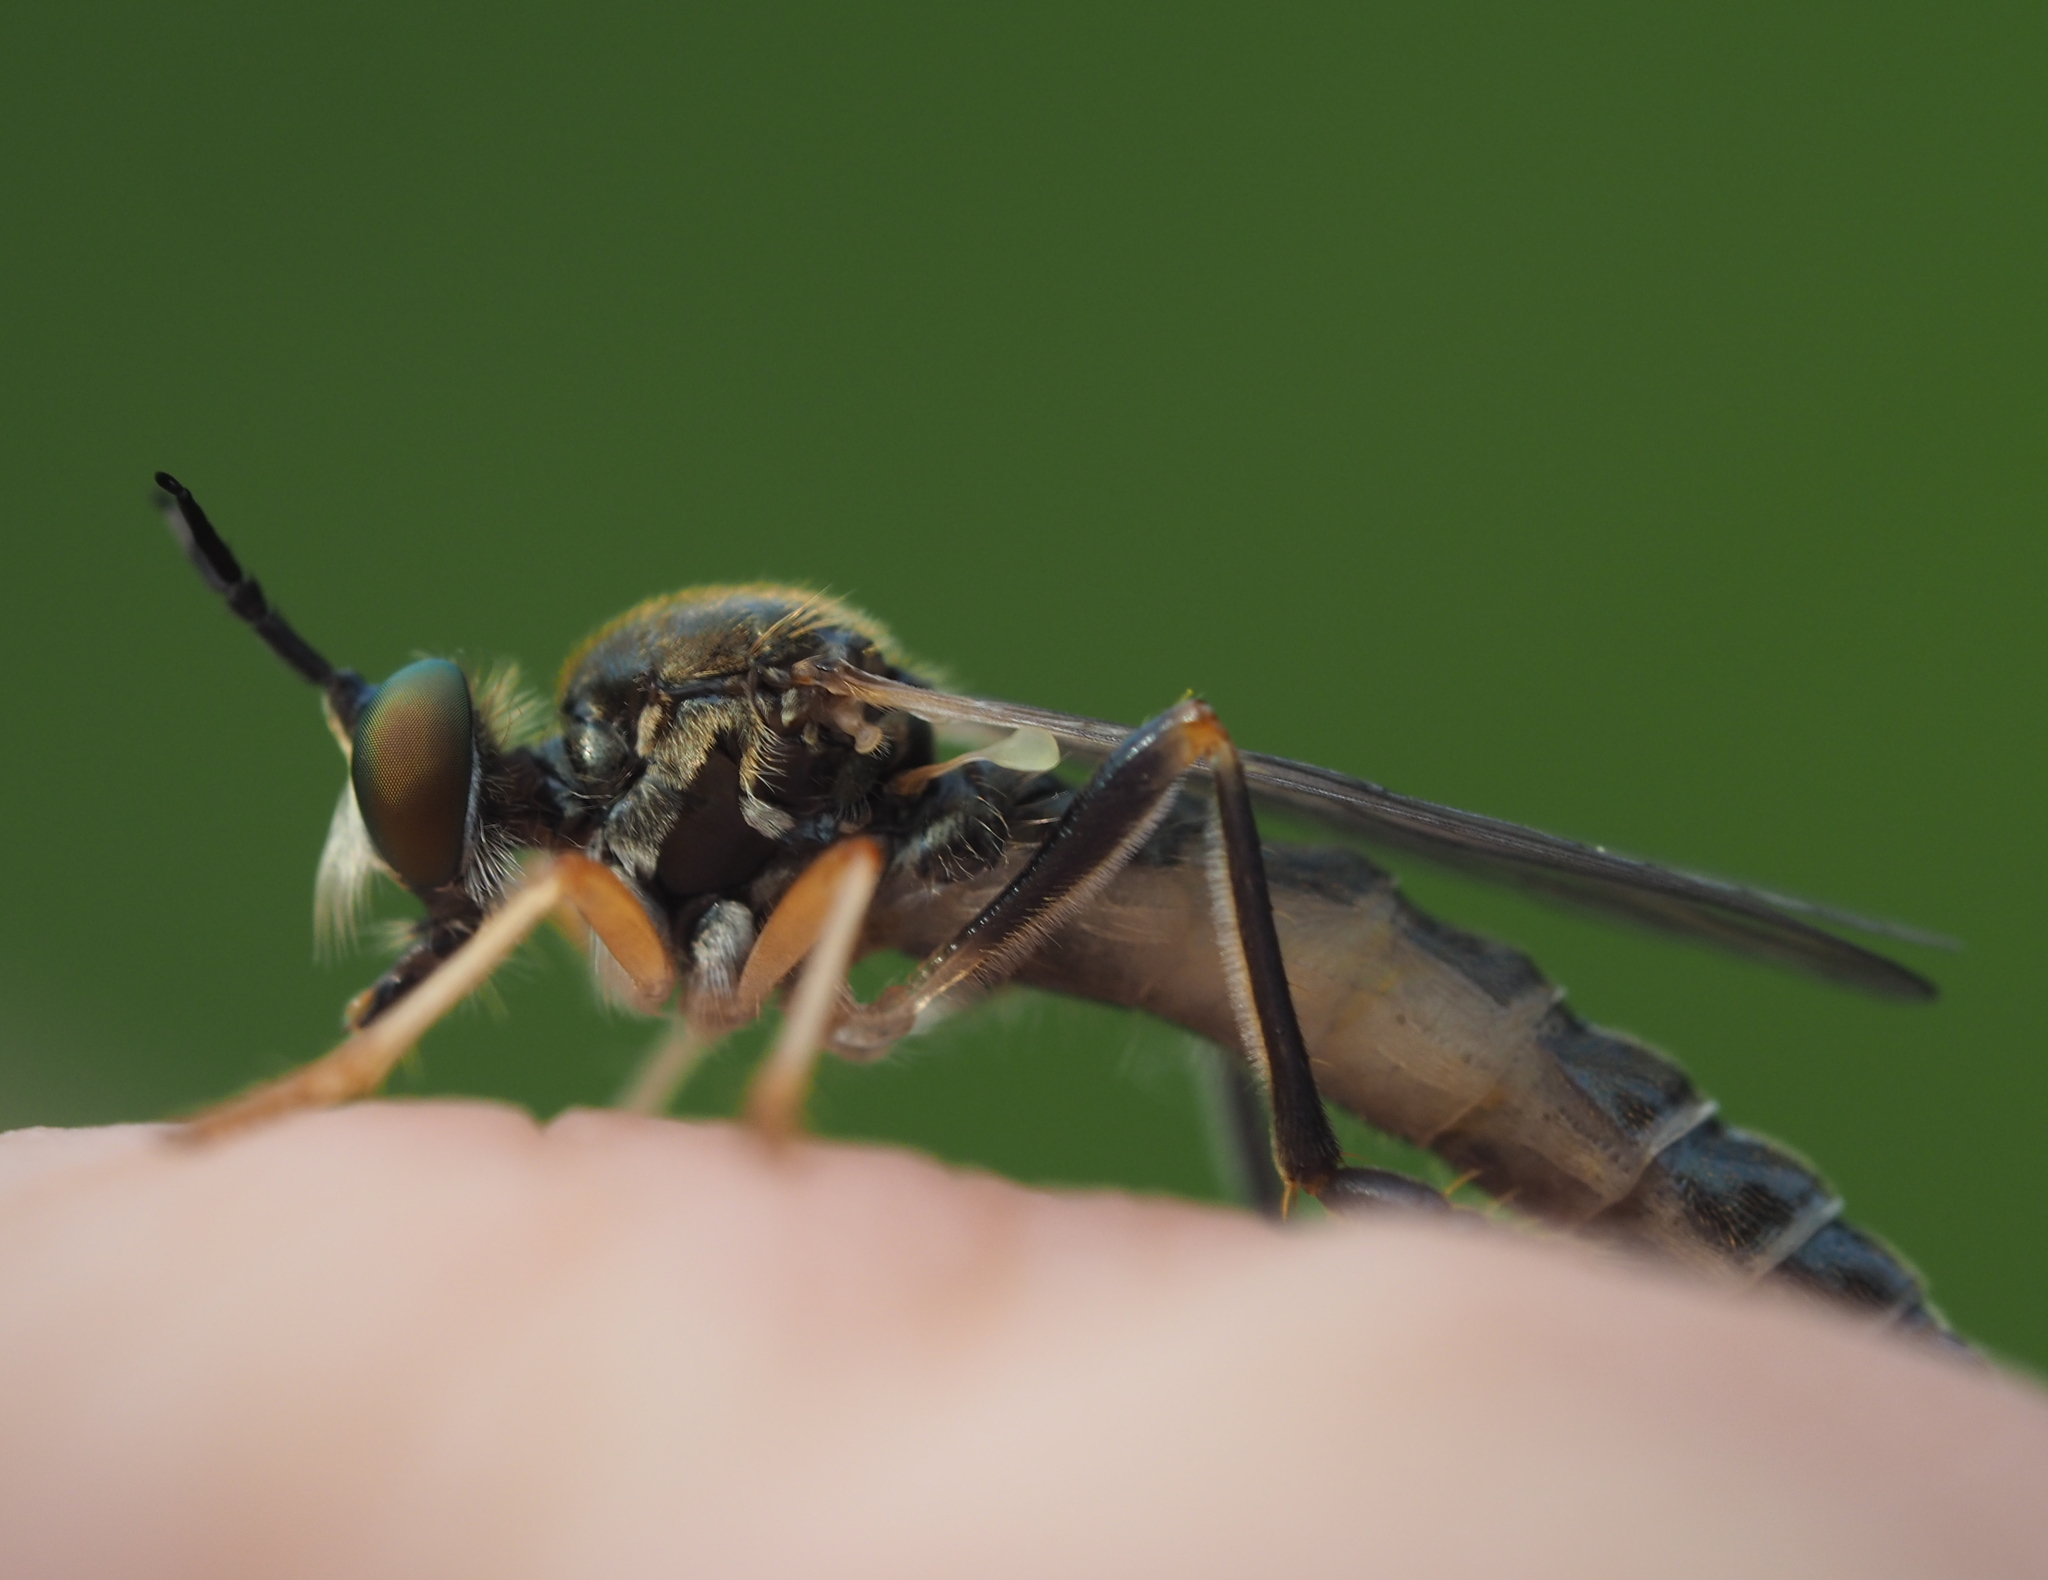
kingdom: Animalia
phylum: Arthropoda
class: Insecta
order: Diptera
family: Asilidae
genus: Dioctria
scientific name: Dioctria rufipes
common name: Common red-legged robberfly
